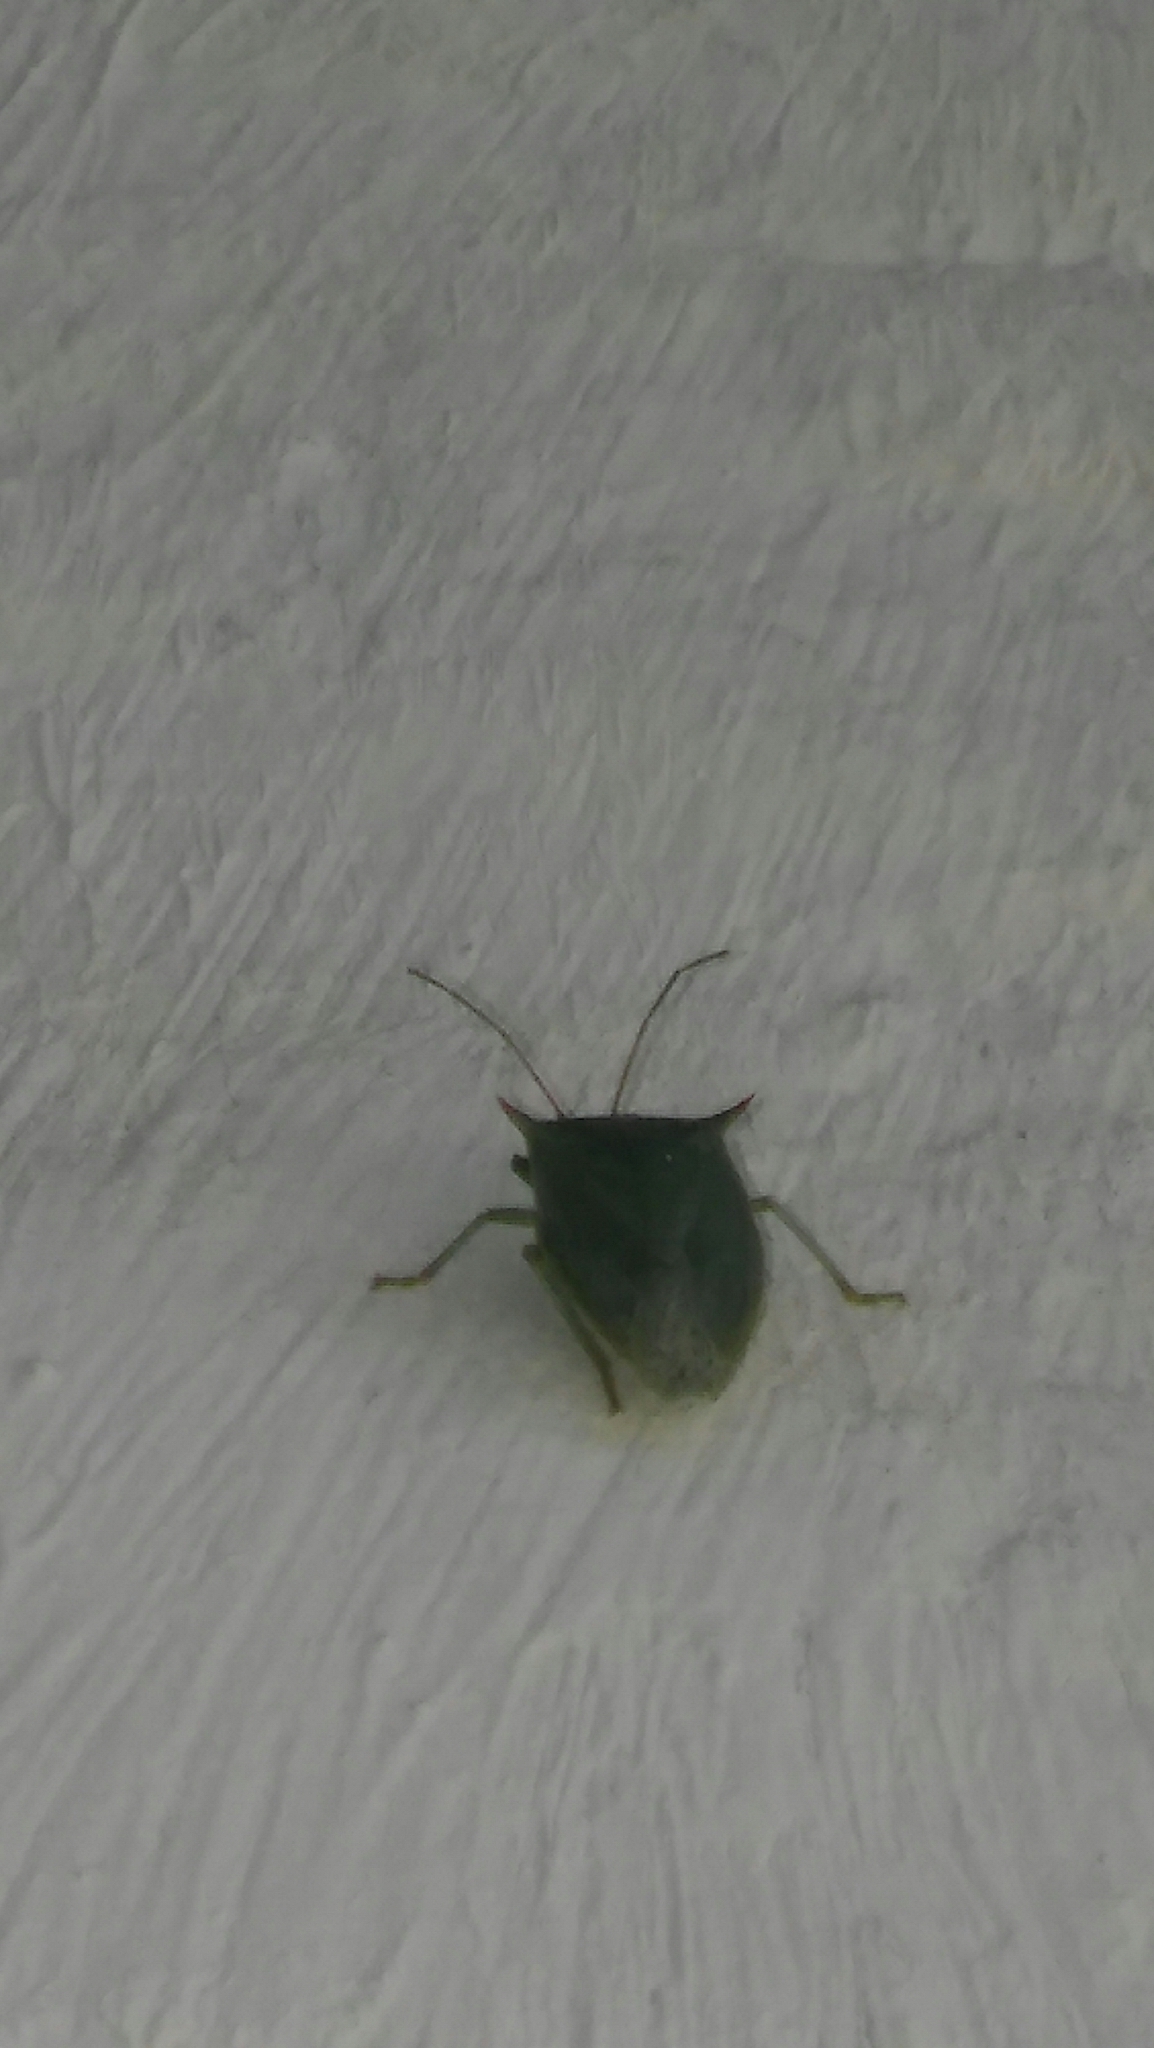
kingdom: Animalia
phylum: Arthropoda
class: Insecta
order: Hemiptera
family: Pentatomidae
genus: Loxa
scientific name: Loxa
